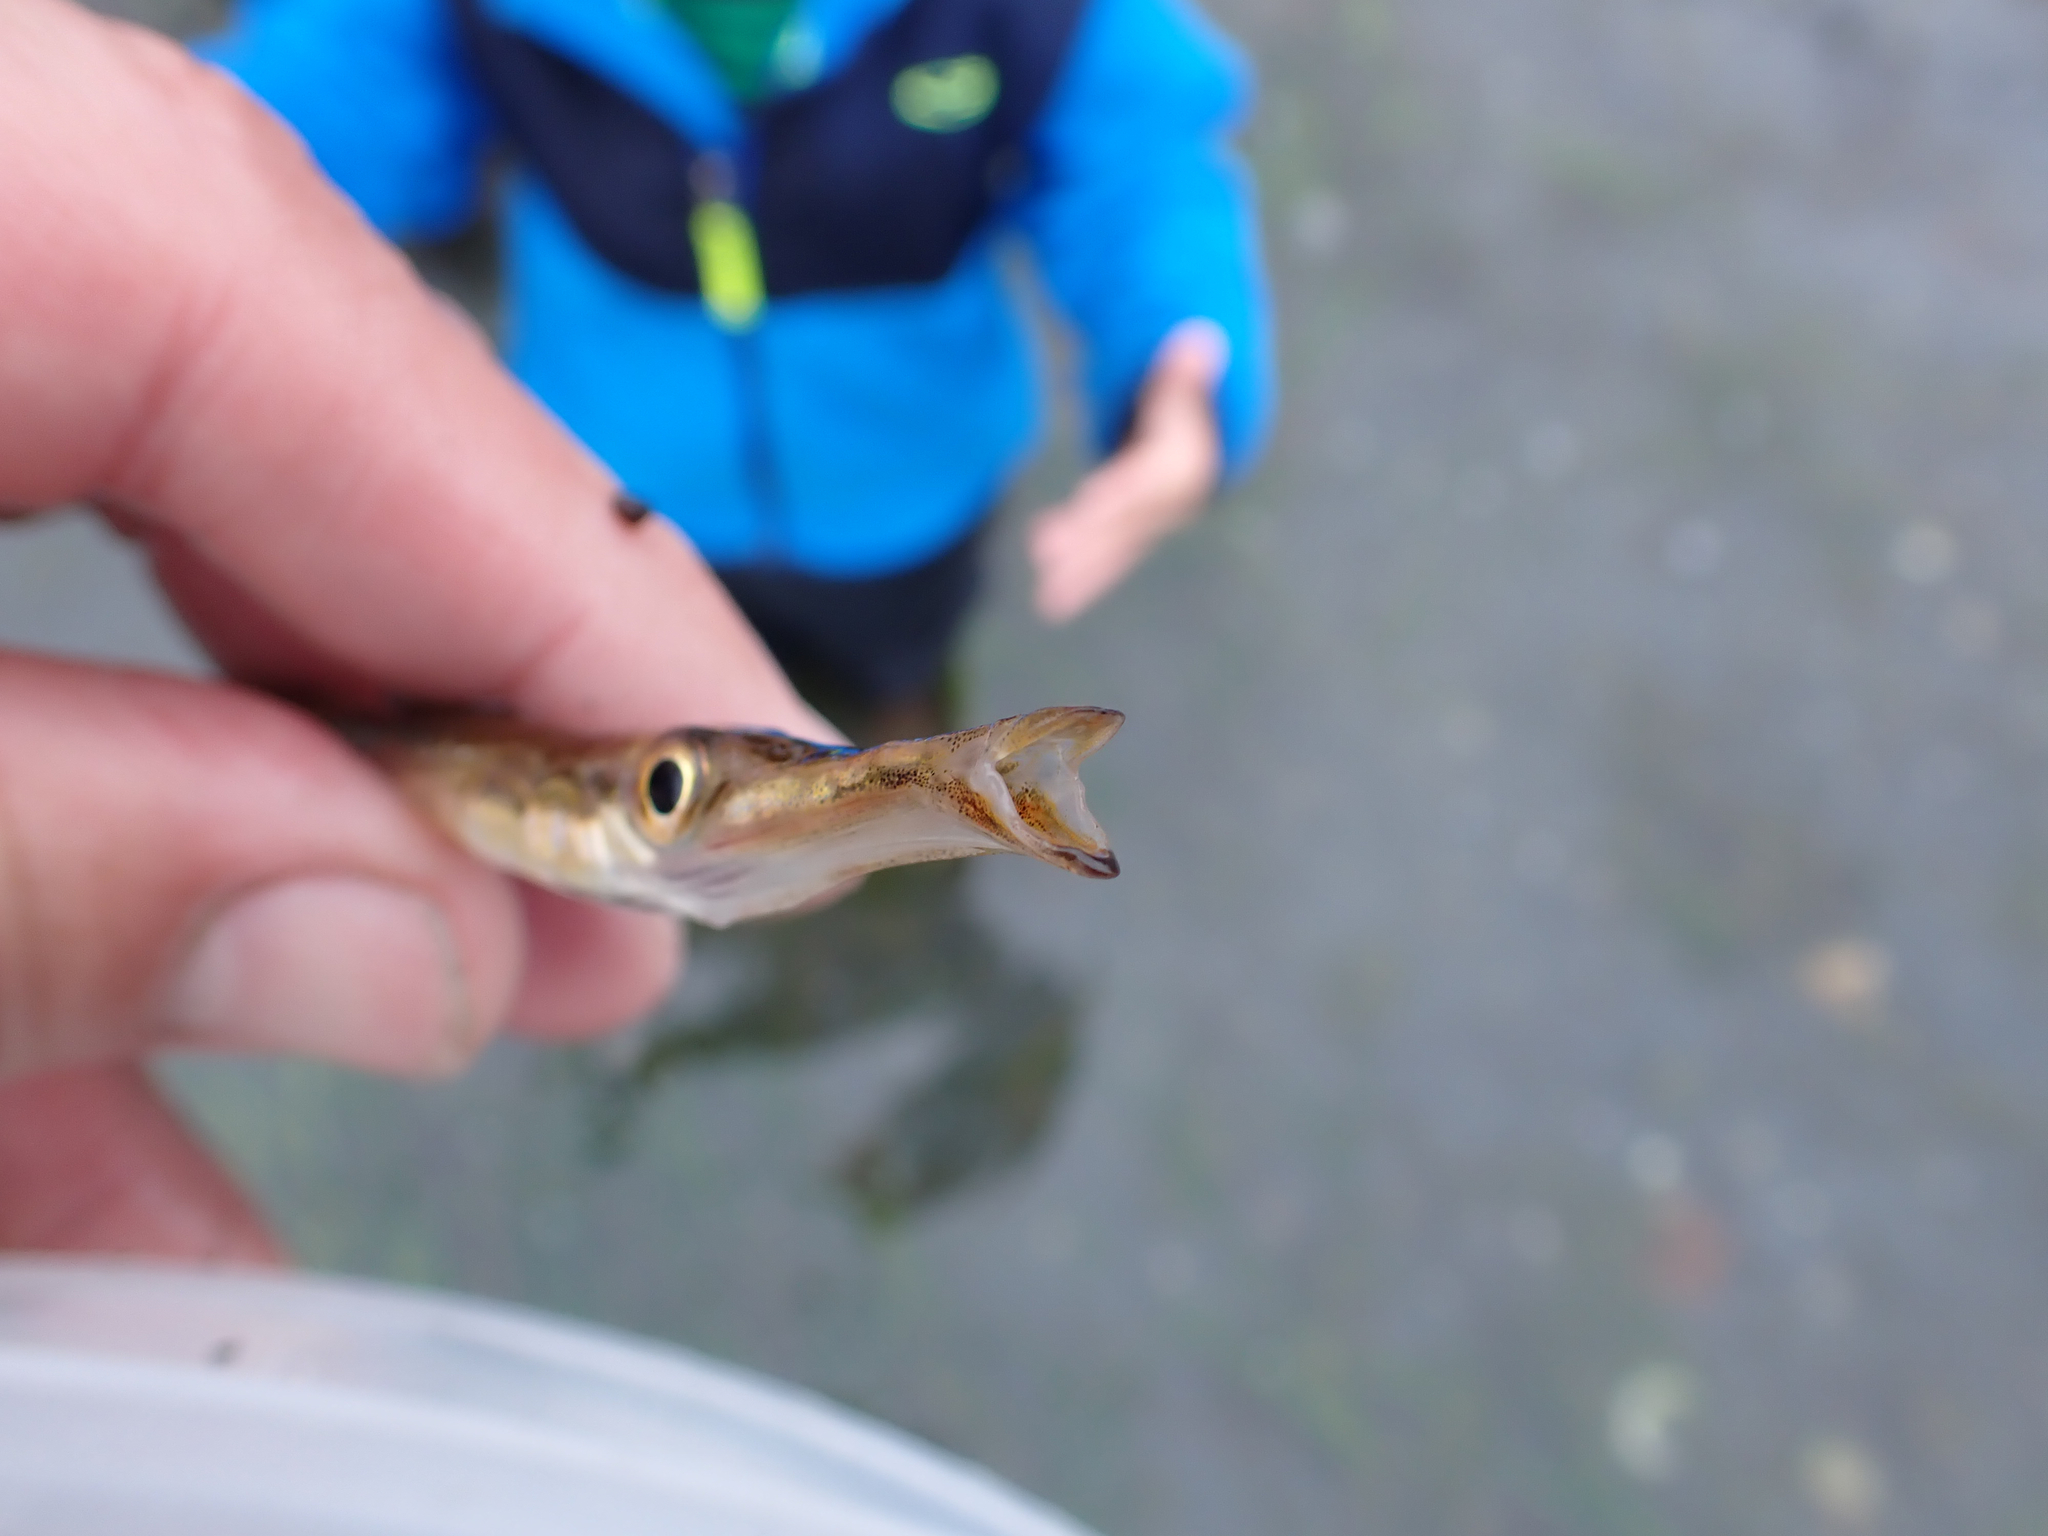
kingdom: Animalia
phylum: Chordata
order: Gasterosteiformes
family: Aulorhynchidae
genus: Aulorhynchus
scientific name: Aulorhynchus flavidus
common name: Tube-snout
